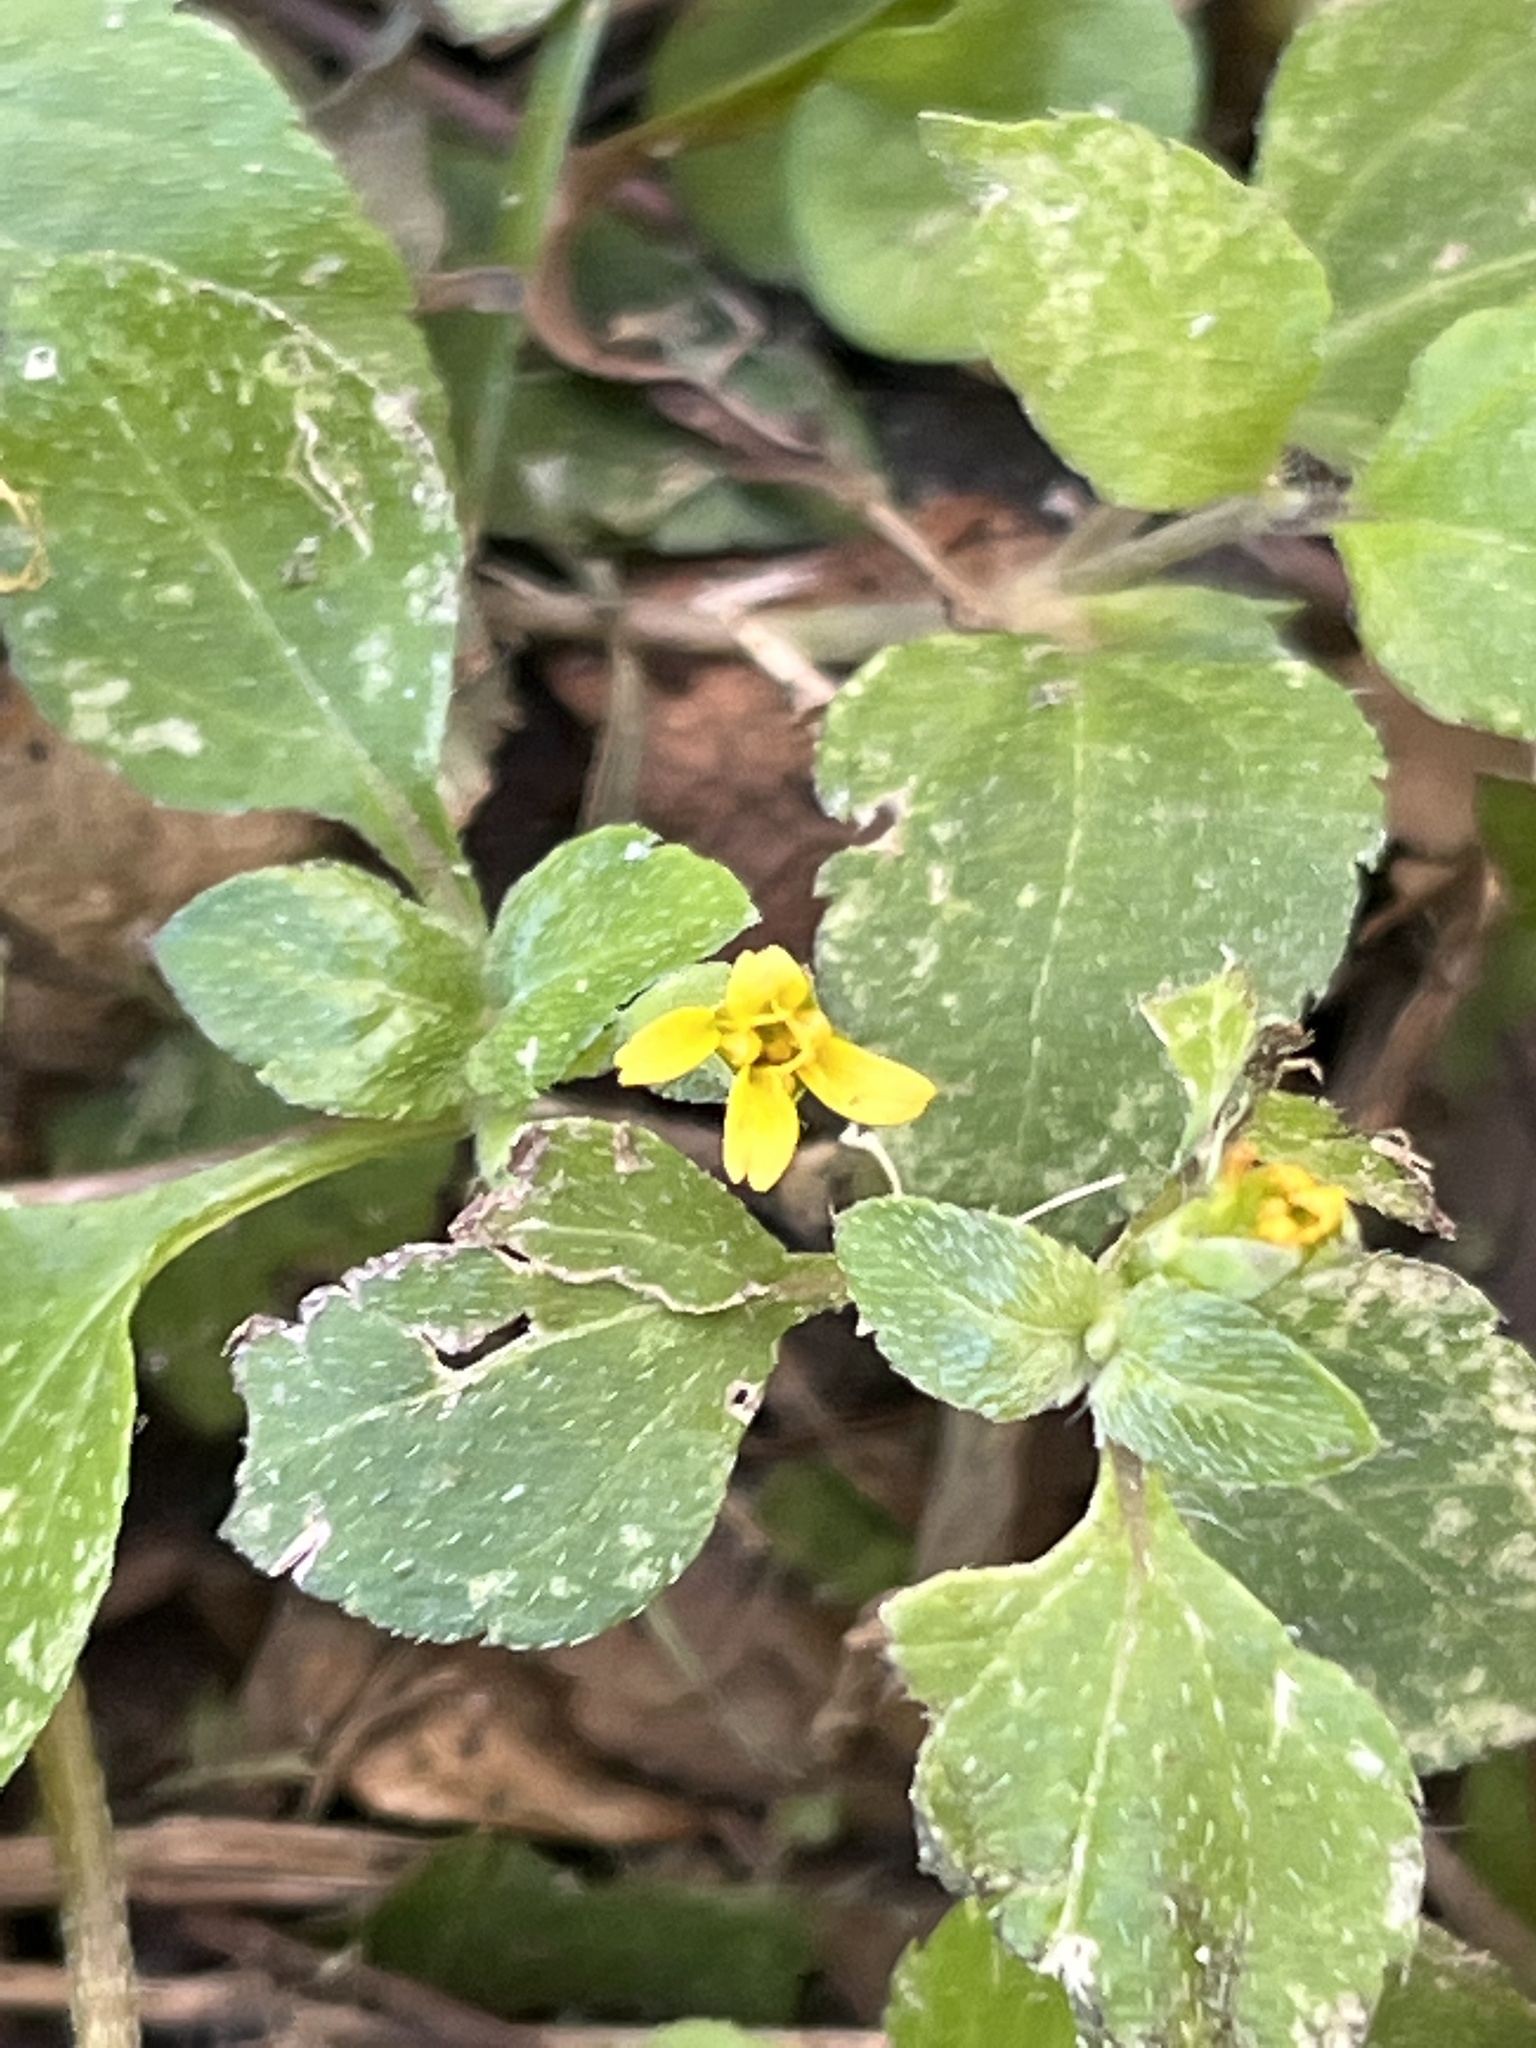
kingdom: Plantae
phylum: Tracheophyta
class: Magnoliopsida
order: Asterales
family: Asteraceae
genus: Calyptocarpus
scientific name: Calyptocarpus vialis
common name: Straggler daisy
